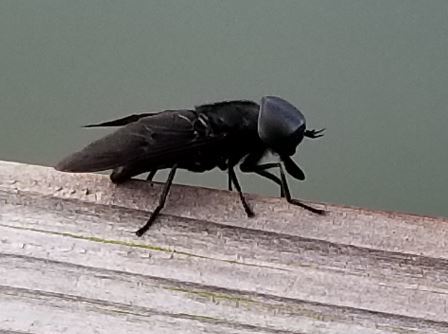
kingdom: Animalia
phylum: Arthropoda
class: Insecta
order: Diptera
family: Tabanidae
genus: Tabanus
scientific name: Tabanus atratus
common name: Black horse fly
